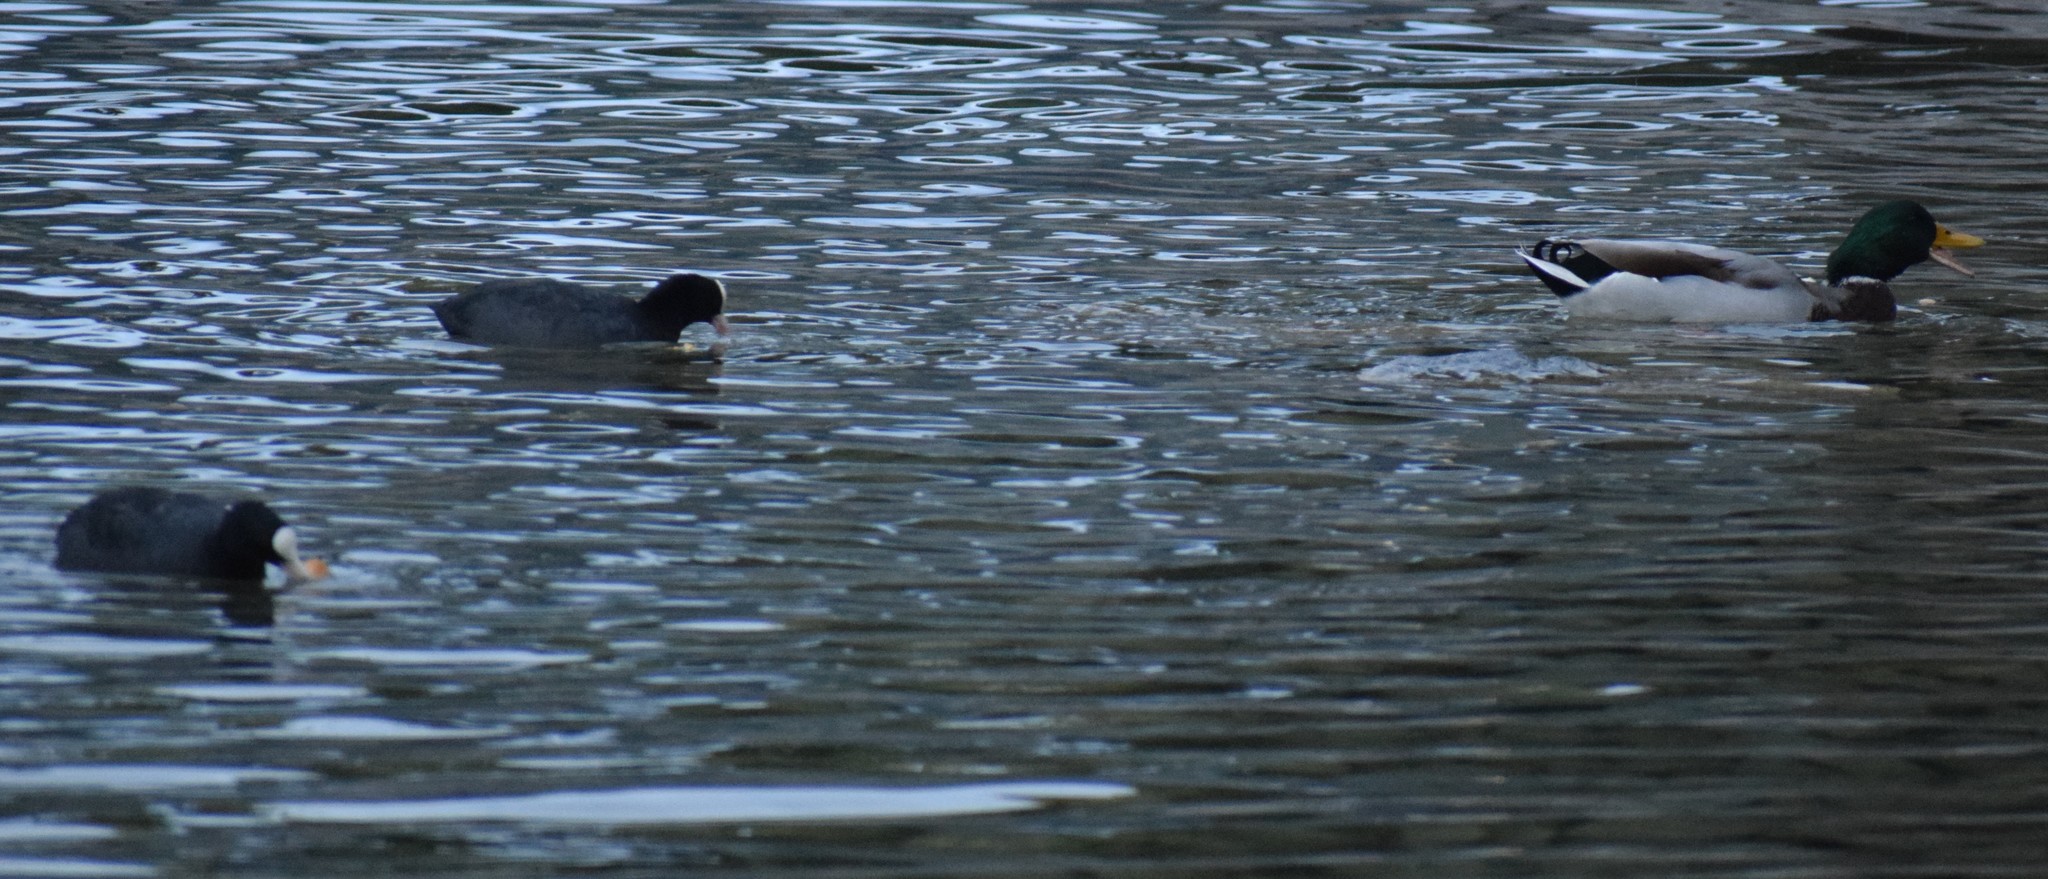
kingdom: Animalia
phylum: Chordata
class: Aves
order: Anseriformes
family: Anatidae
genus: Anas
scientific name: Anas platyrhynchos
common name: Mallard
